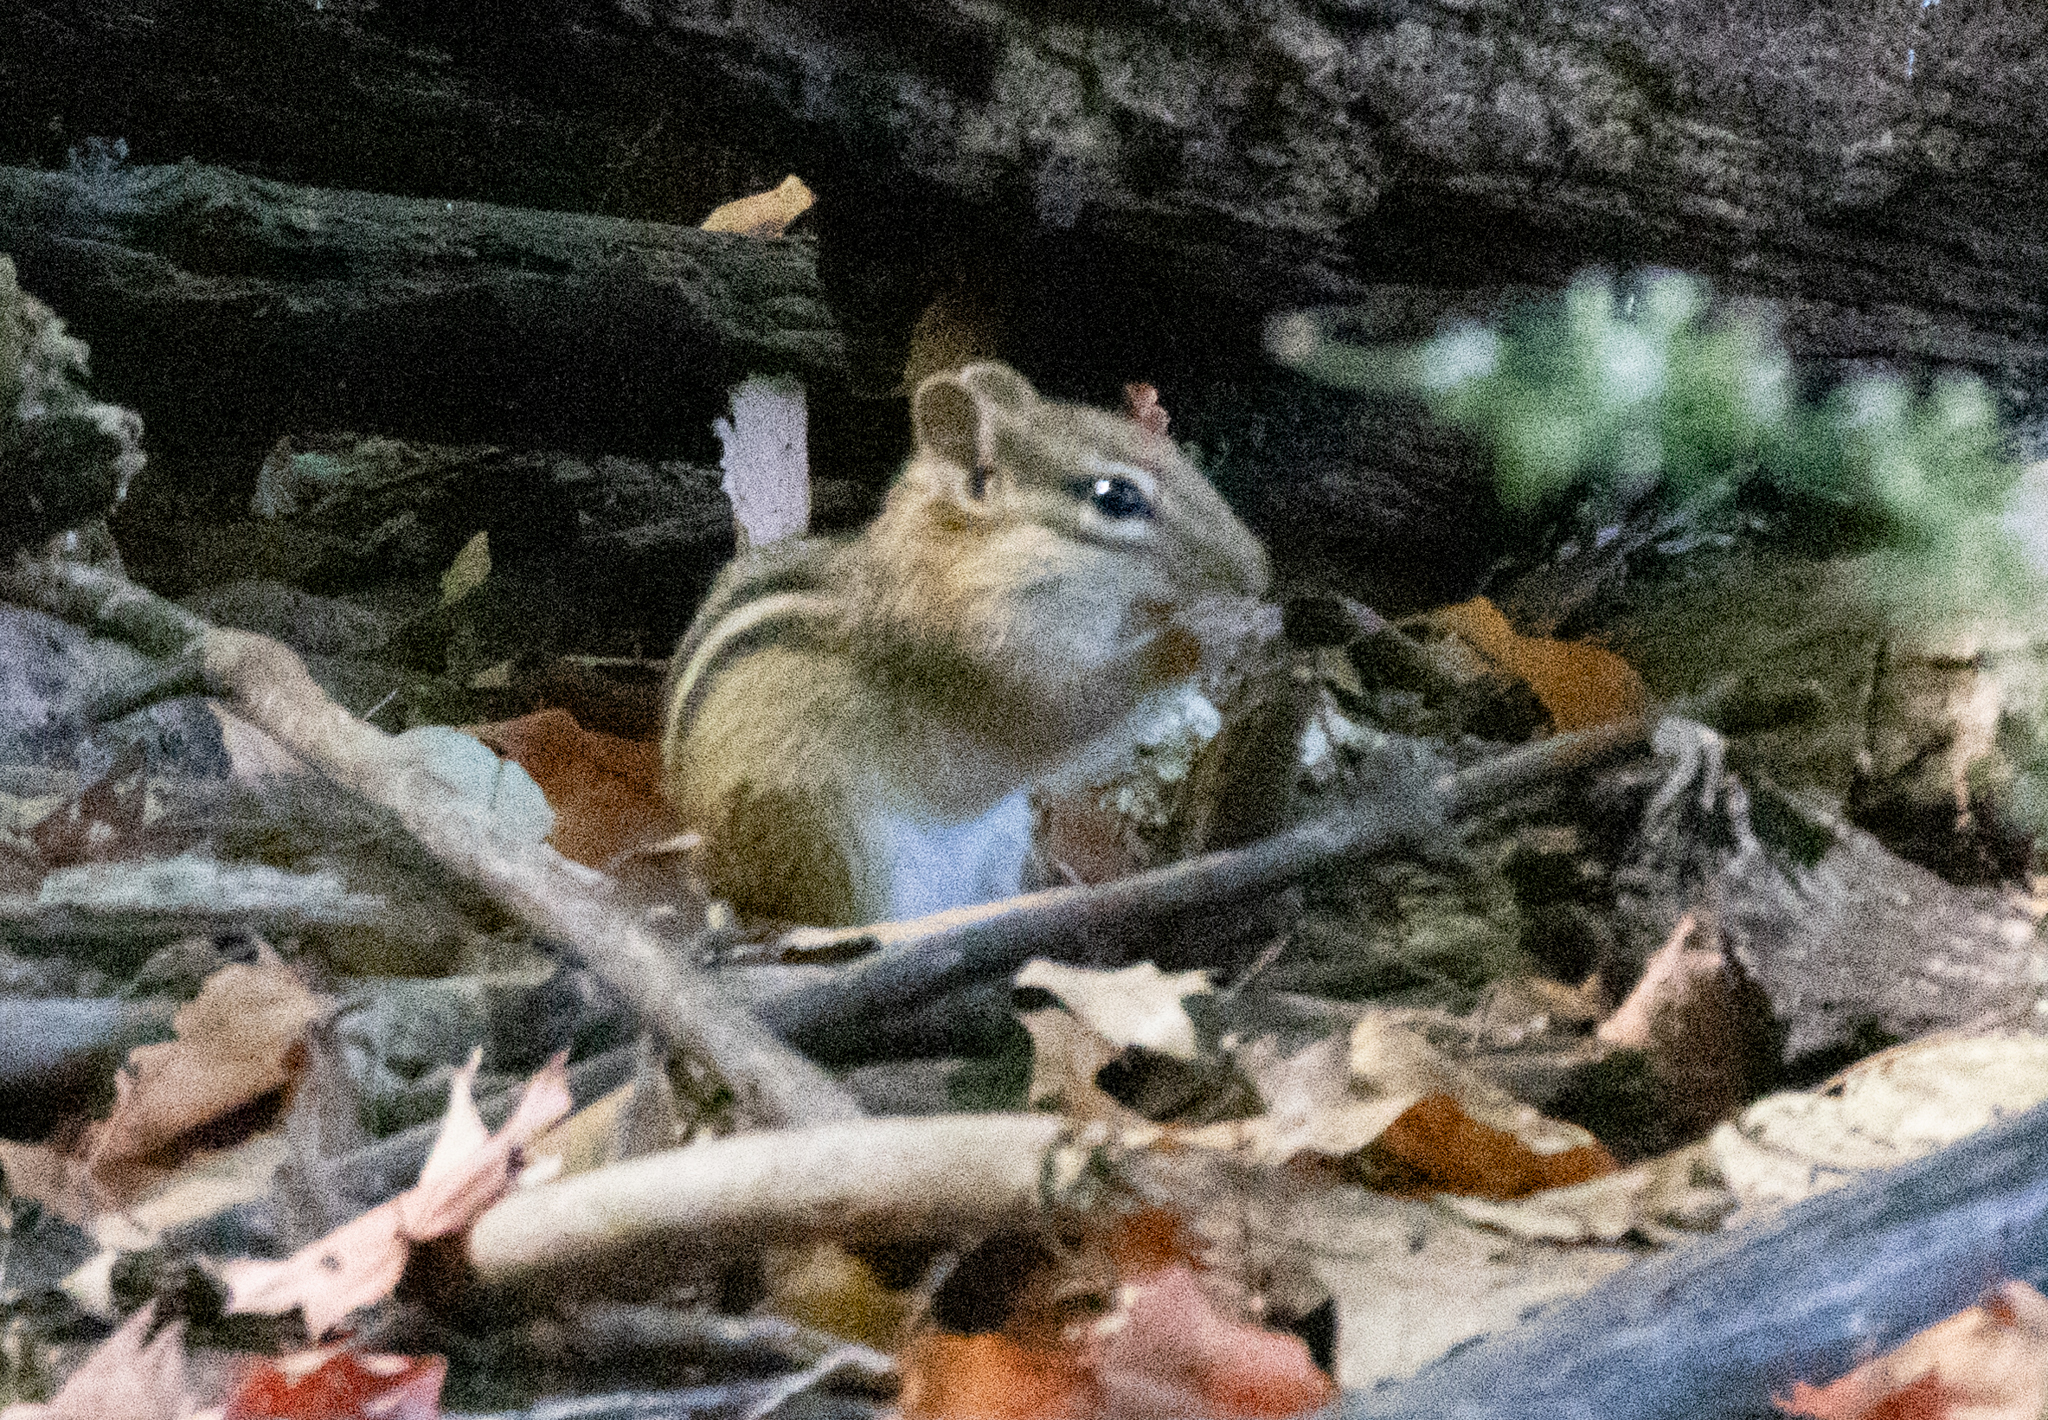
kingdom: Animalia
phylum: Chordata
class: Mammalia
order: Rodentia
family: Sciuridae
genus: Tamias
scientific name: Tamias striatus
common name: Eastern chipmunk
